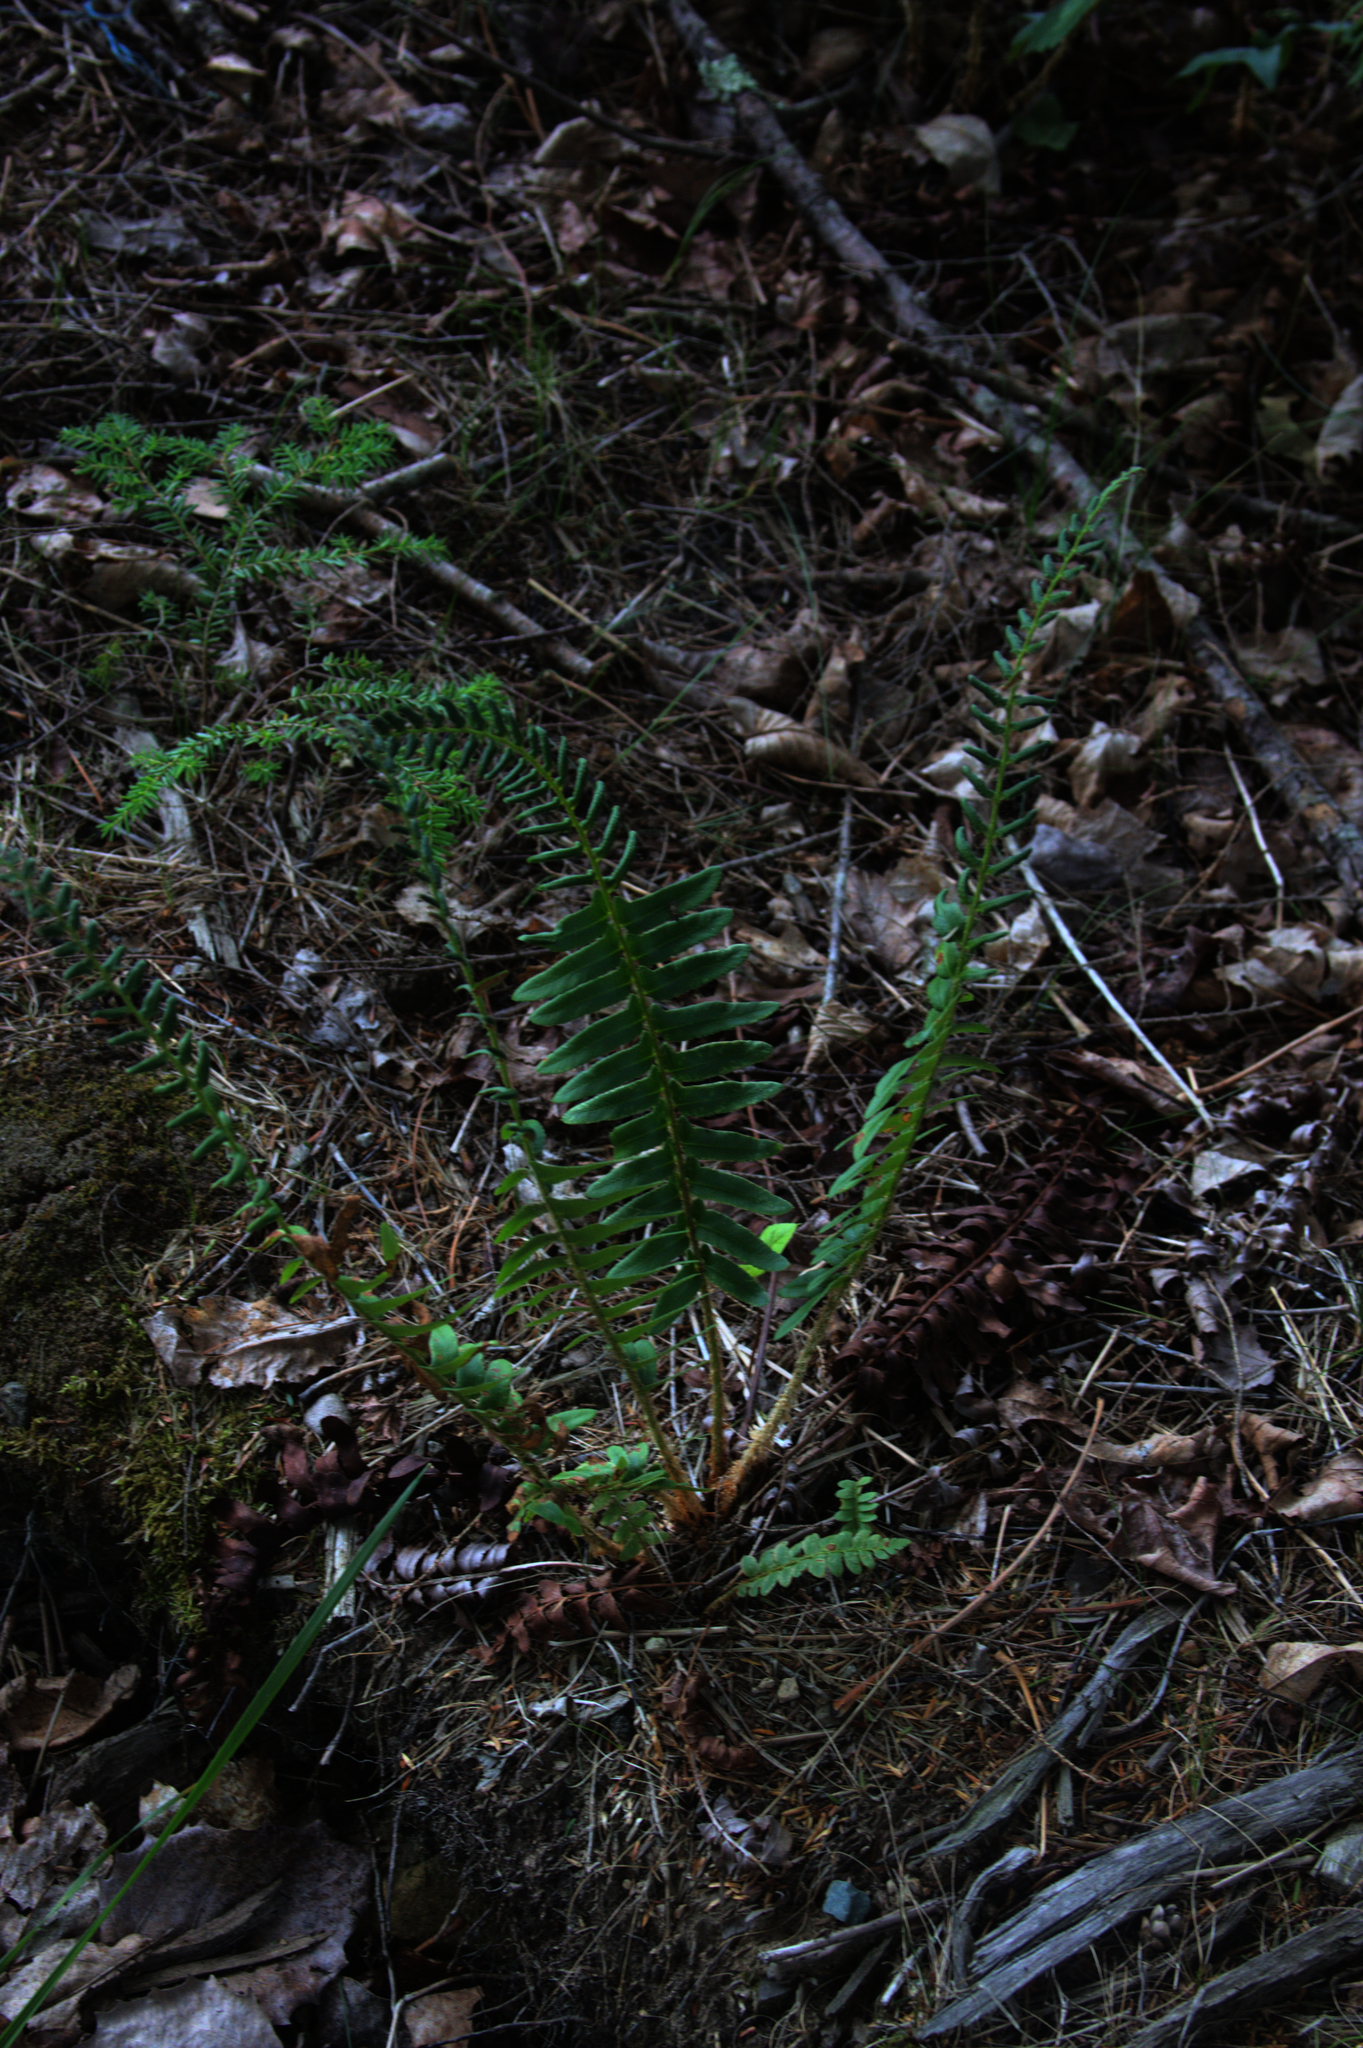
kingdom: Plantae
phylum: Tracheophyta
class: Polypodiopsida
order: Polypodiales
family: Dryopteridaceae
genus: Polystichum
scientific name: Polystichum acrostichoides
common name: Christmas fern
